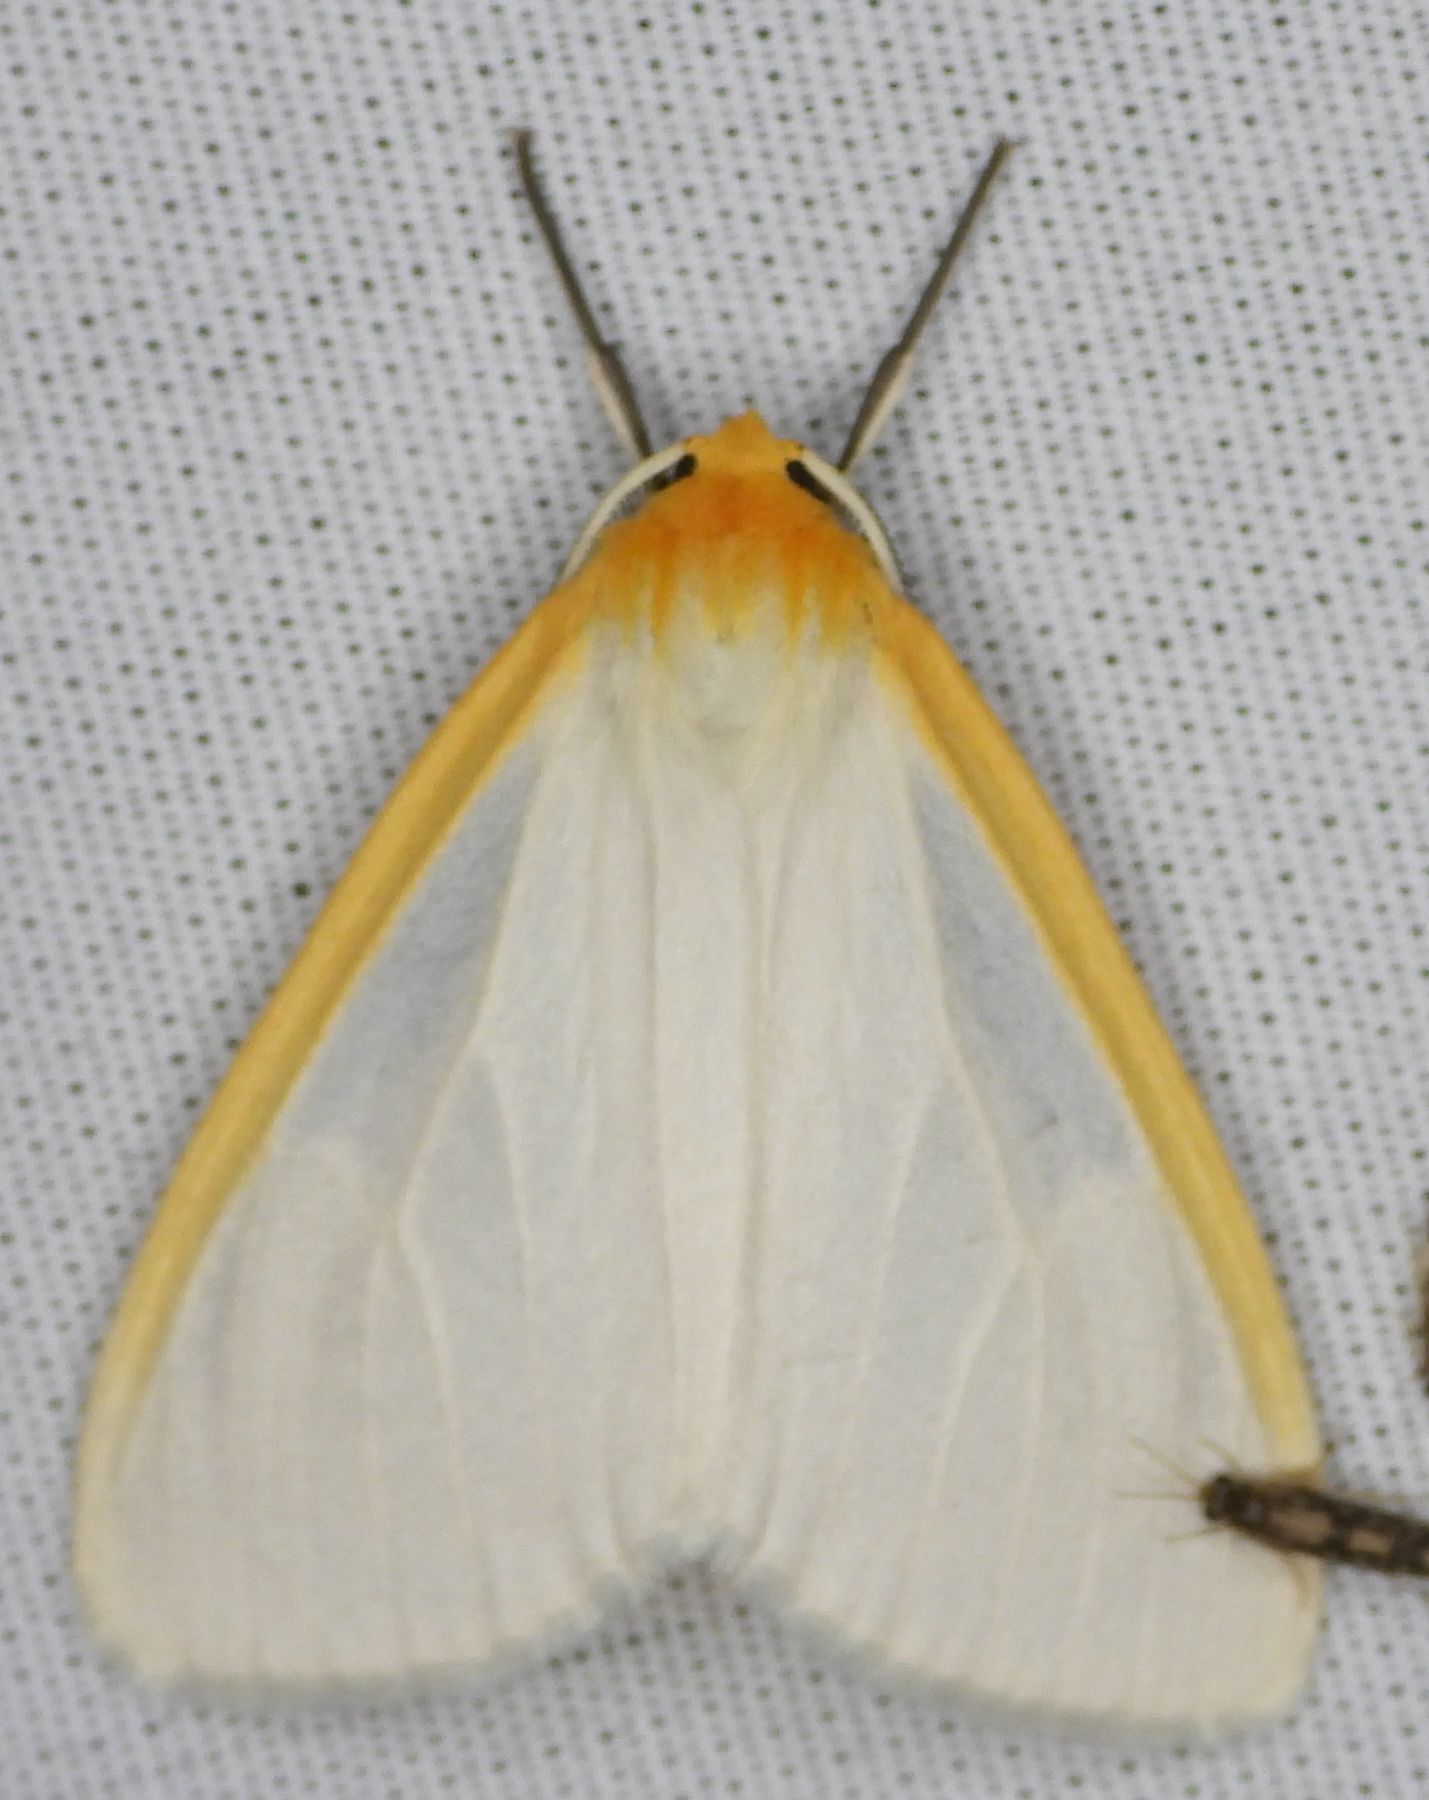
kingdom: Animalia
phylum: Arthropoda
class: Insecta
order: Lepidoptera
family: Erebidae
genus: Cycnia
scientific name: Cycnia tenera
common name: Delicate cycnia moth
